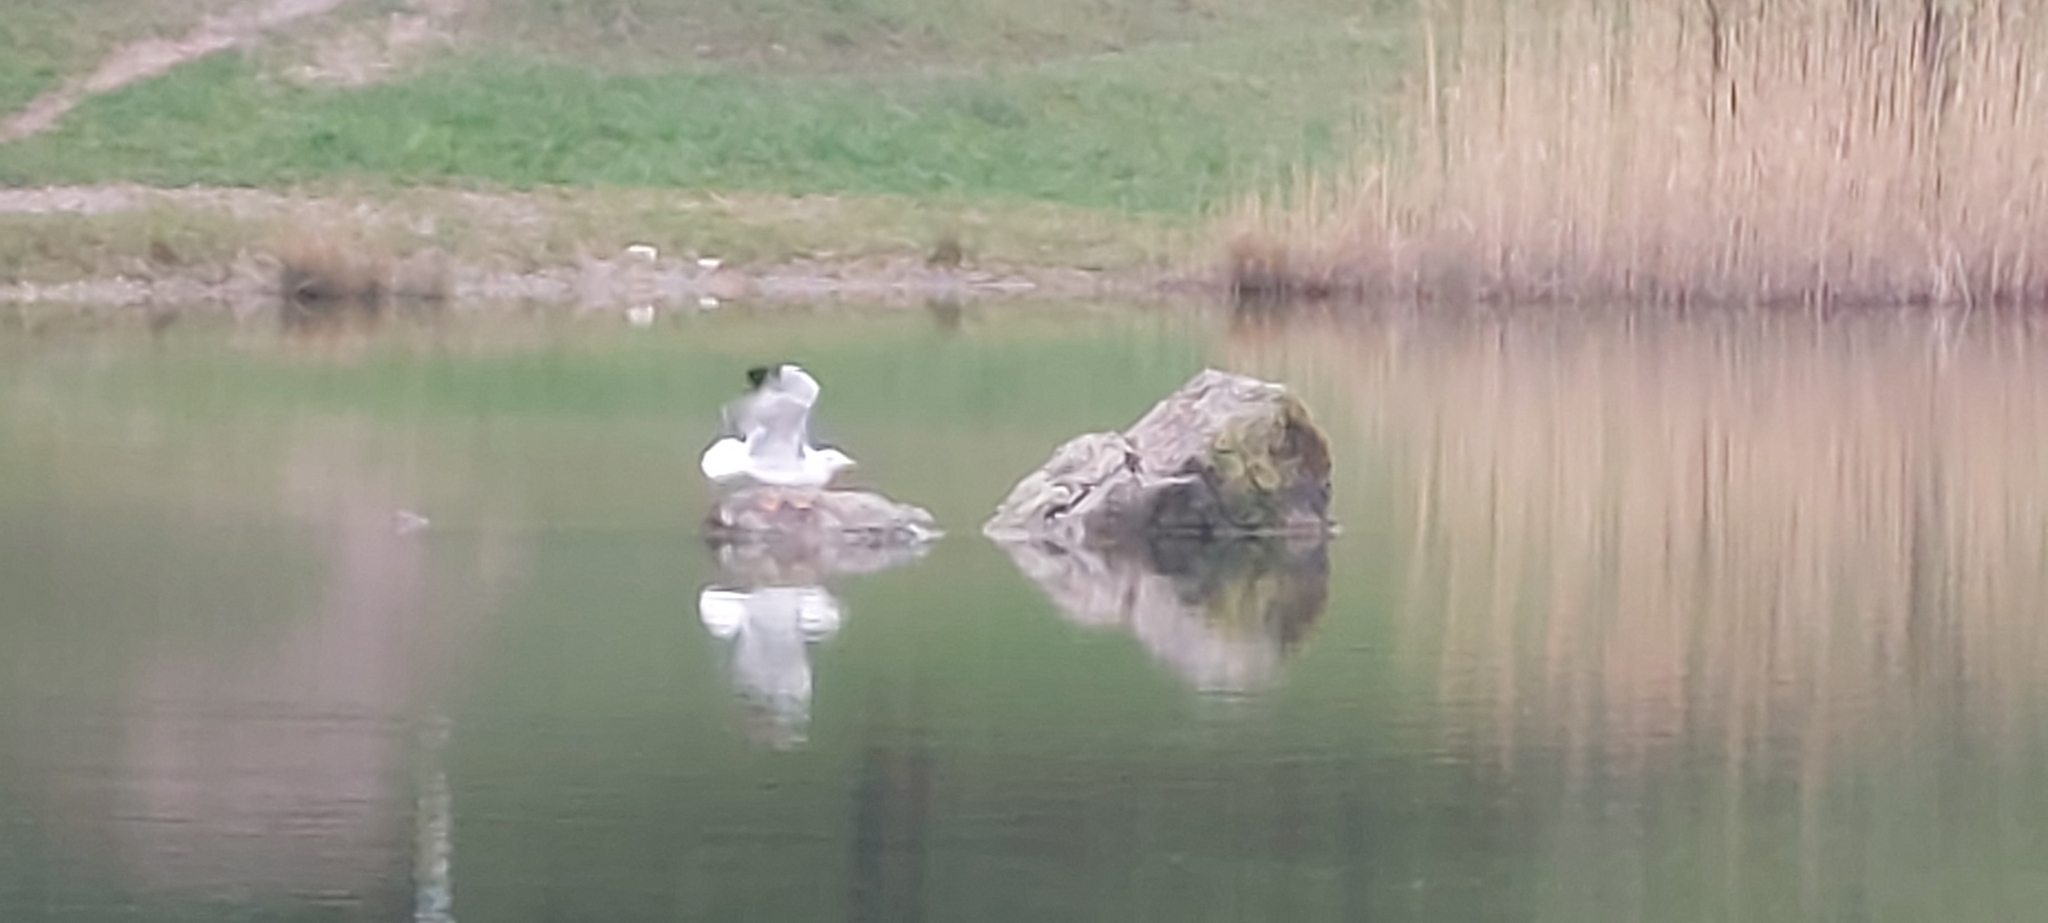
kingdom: Animalia
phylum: Chordata
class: Aves
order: Charadriiformes
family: Laridae
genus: Larus
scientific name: Larus michahellis
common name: Yellow-legged gull
